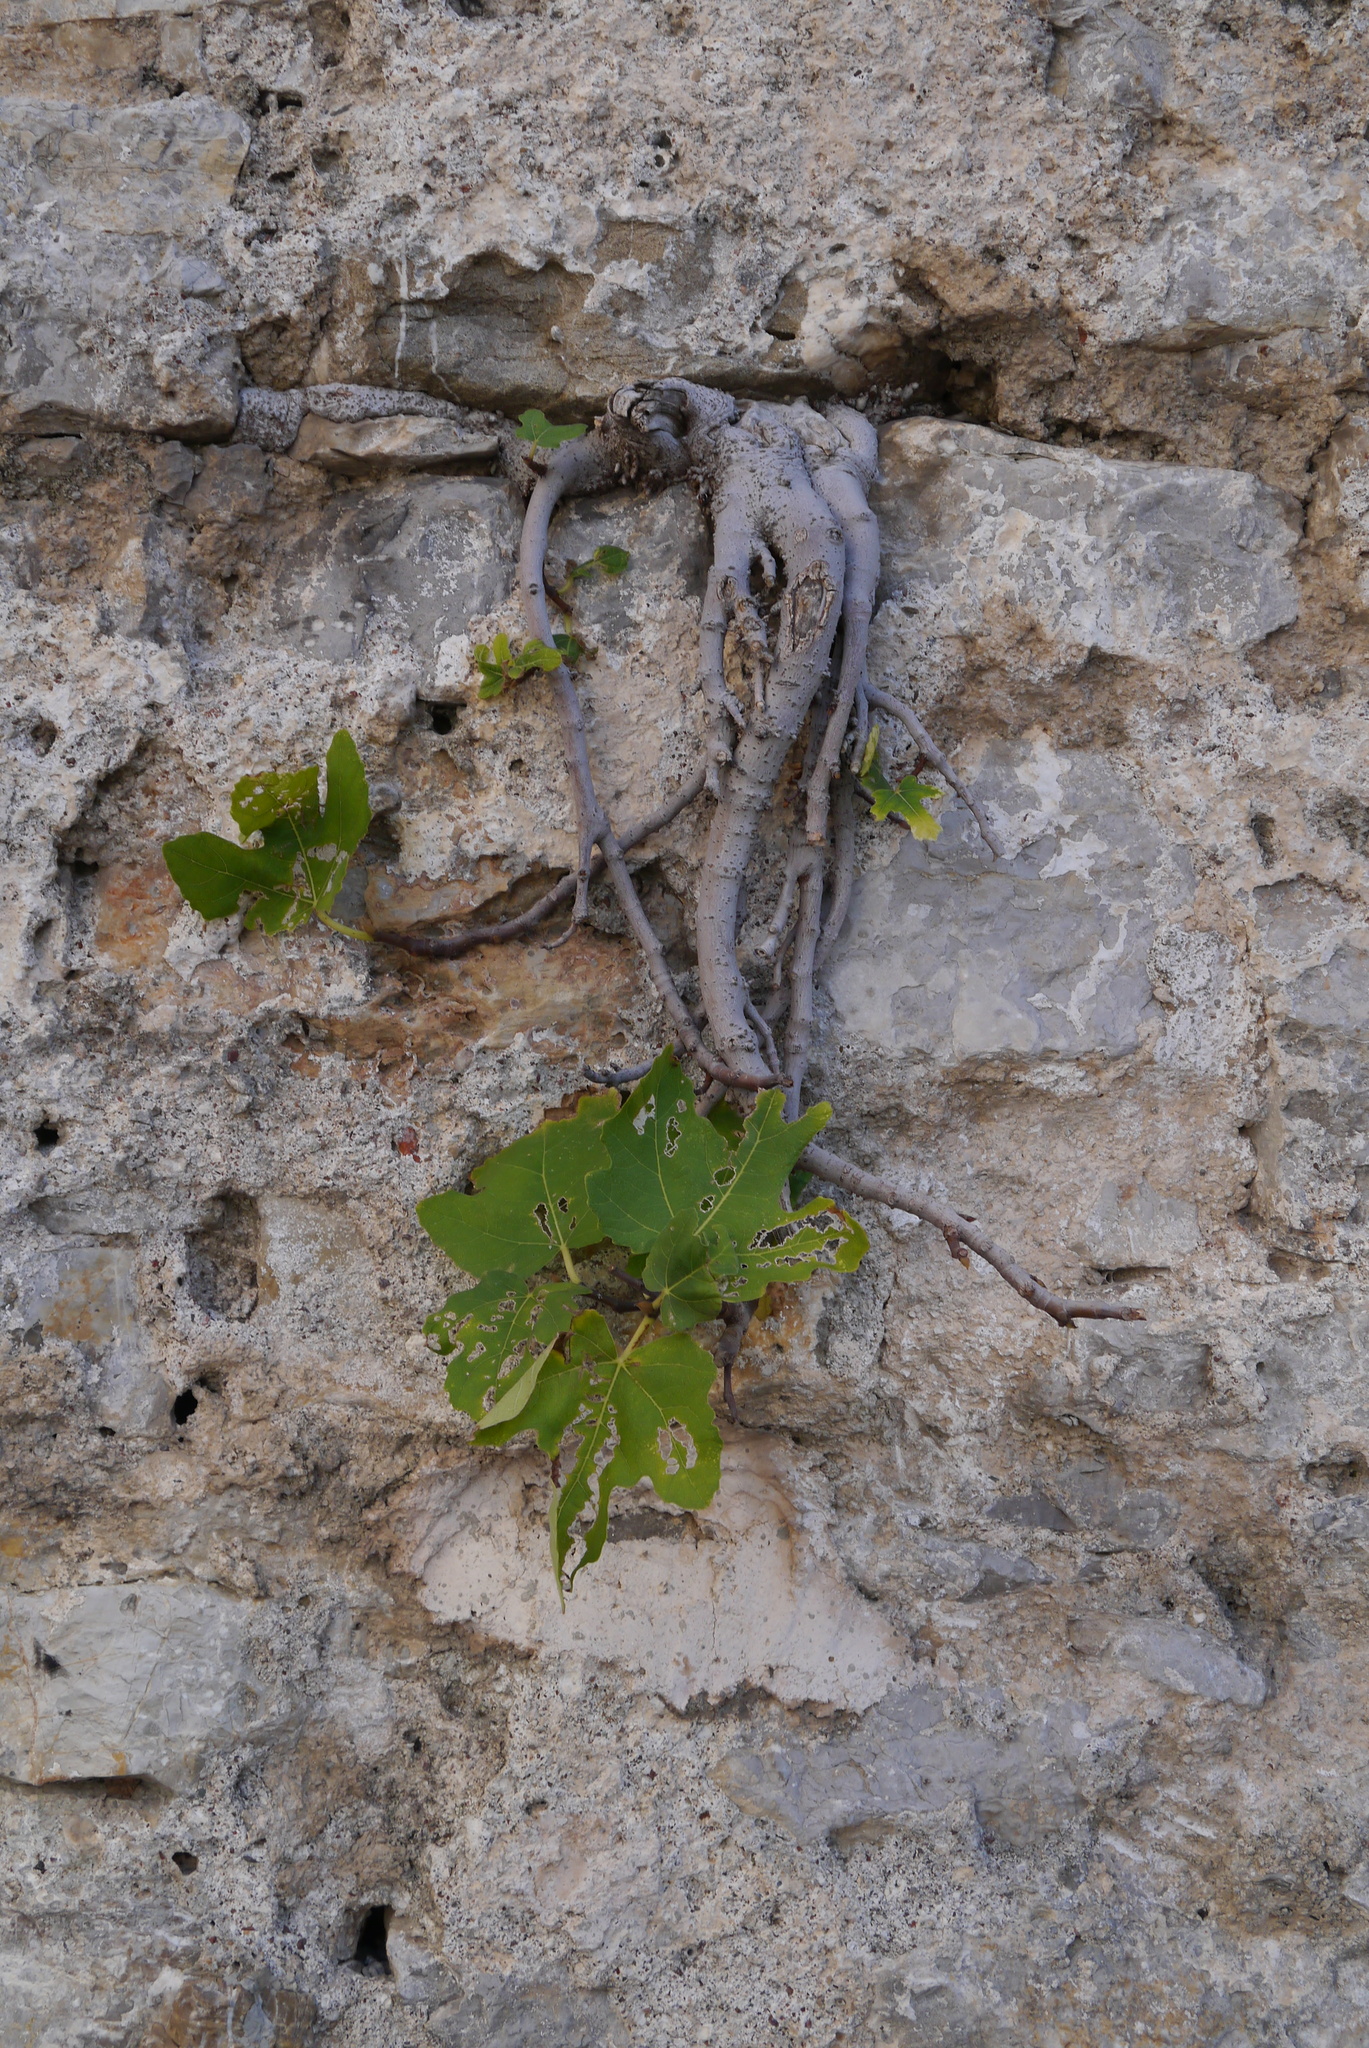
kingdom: Plantae
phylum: Tracheophyta
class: Magnoliopsida
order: Rosales
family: Moraceae
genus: Ficus
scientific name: Ficus carica
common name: Fig
